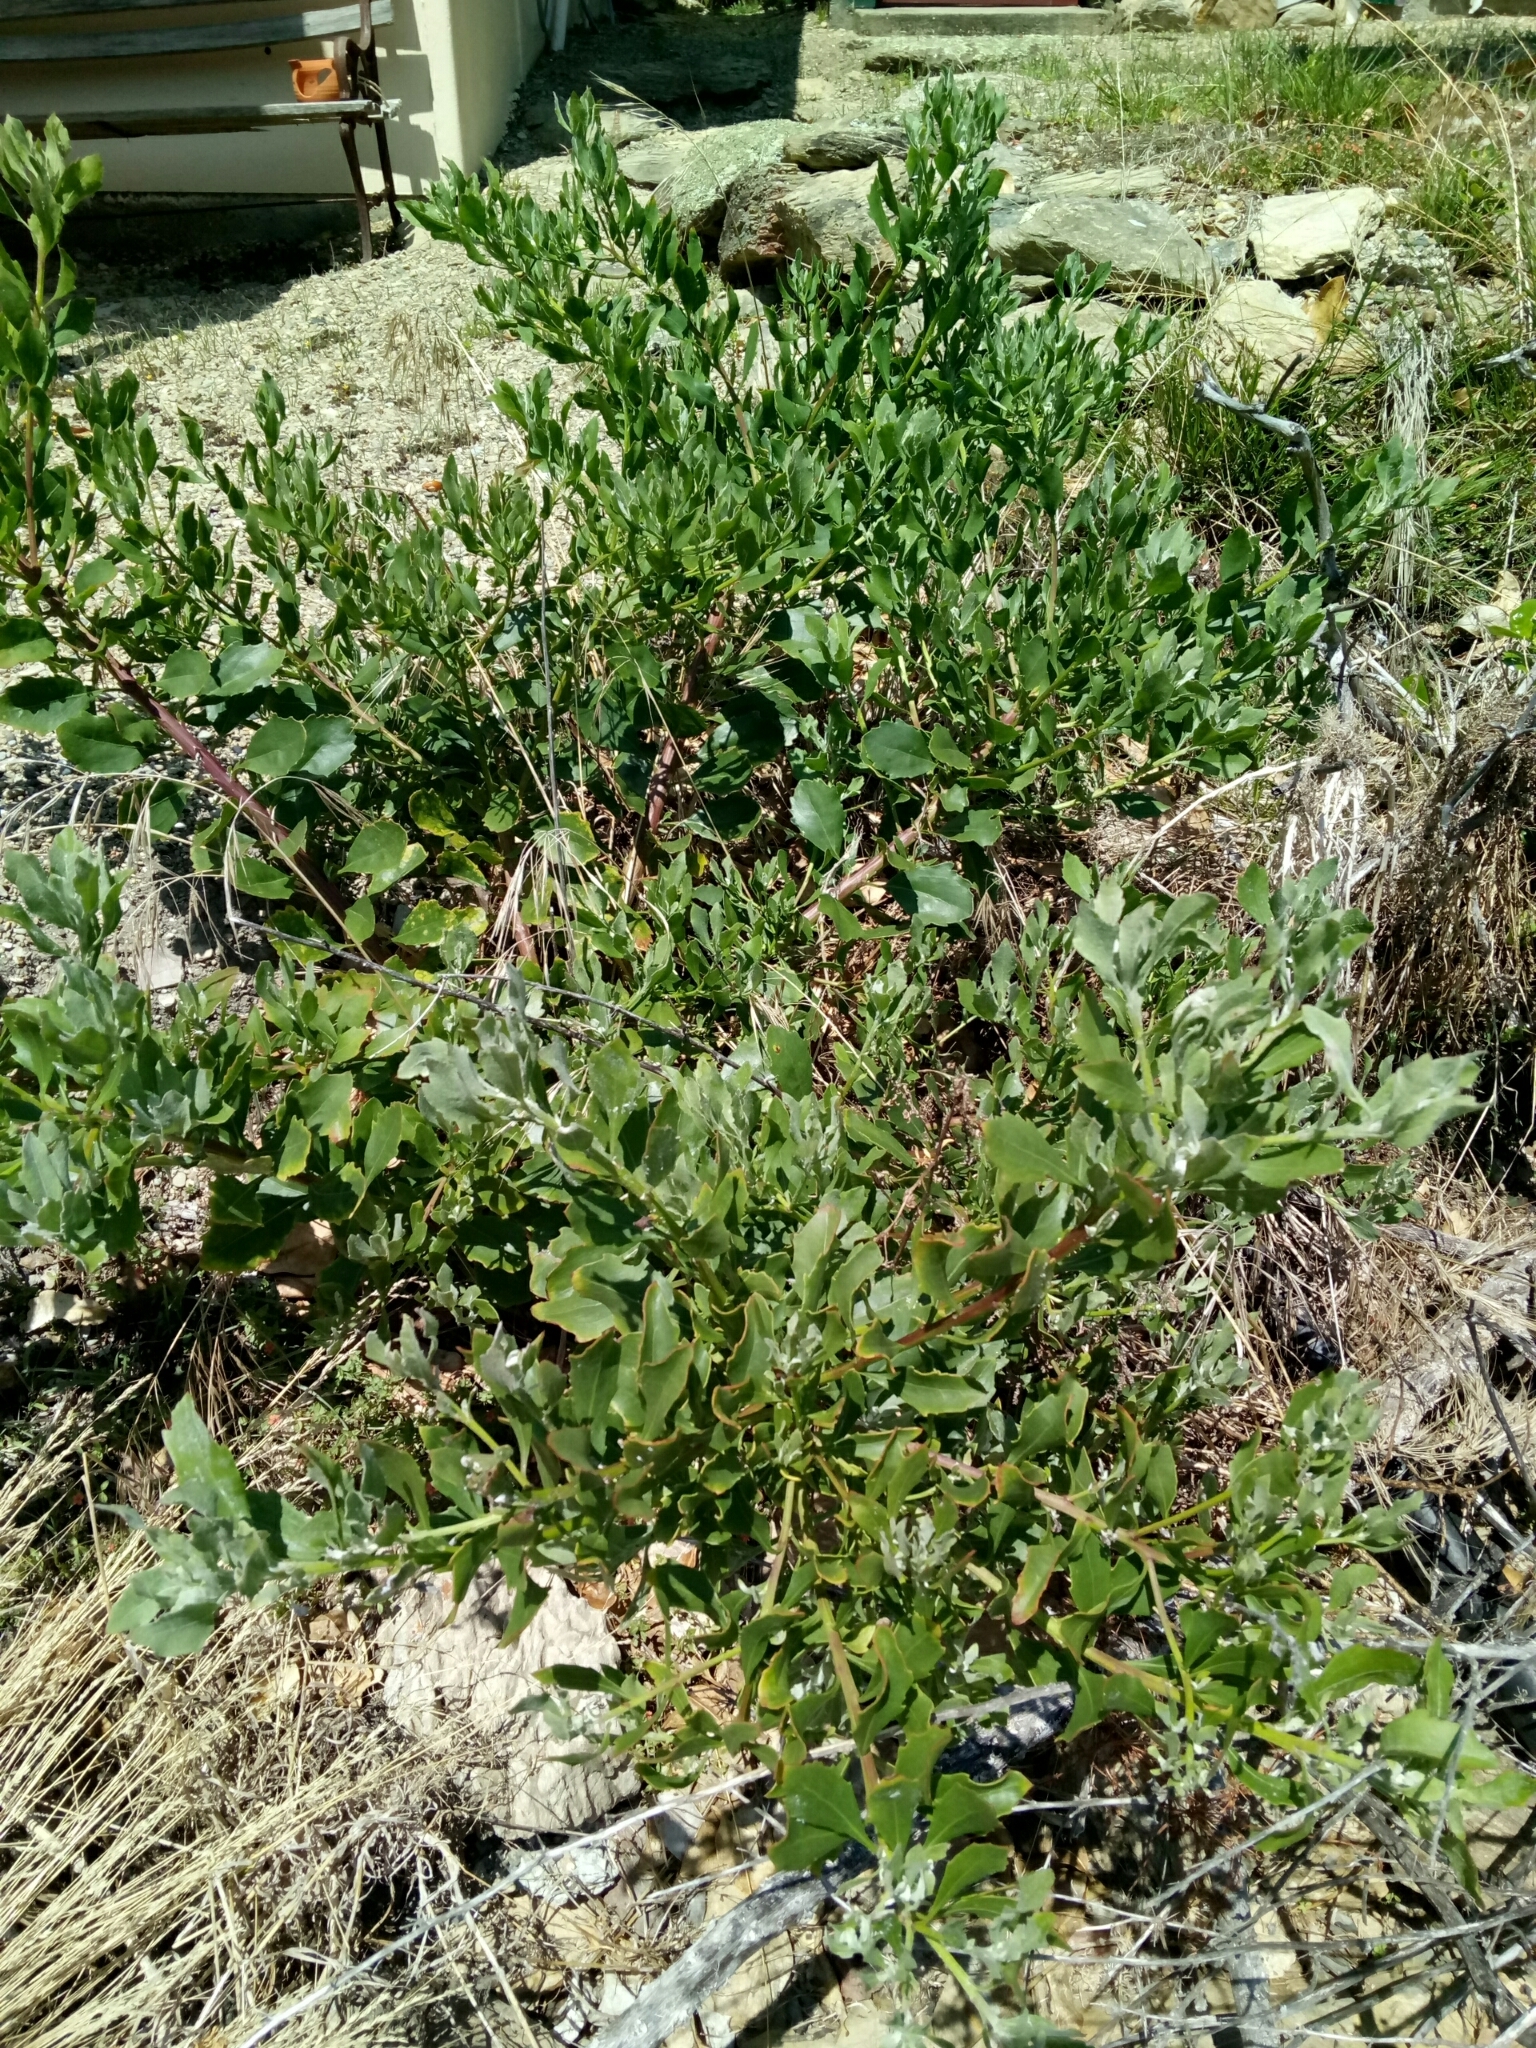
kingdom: Plantae
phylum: Tracheophyta
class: Magnoliopsida
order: Asterales
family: Asteraceae
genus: Osteospermum
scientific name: Osteospermum moniliferum
